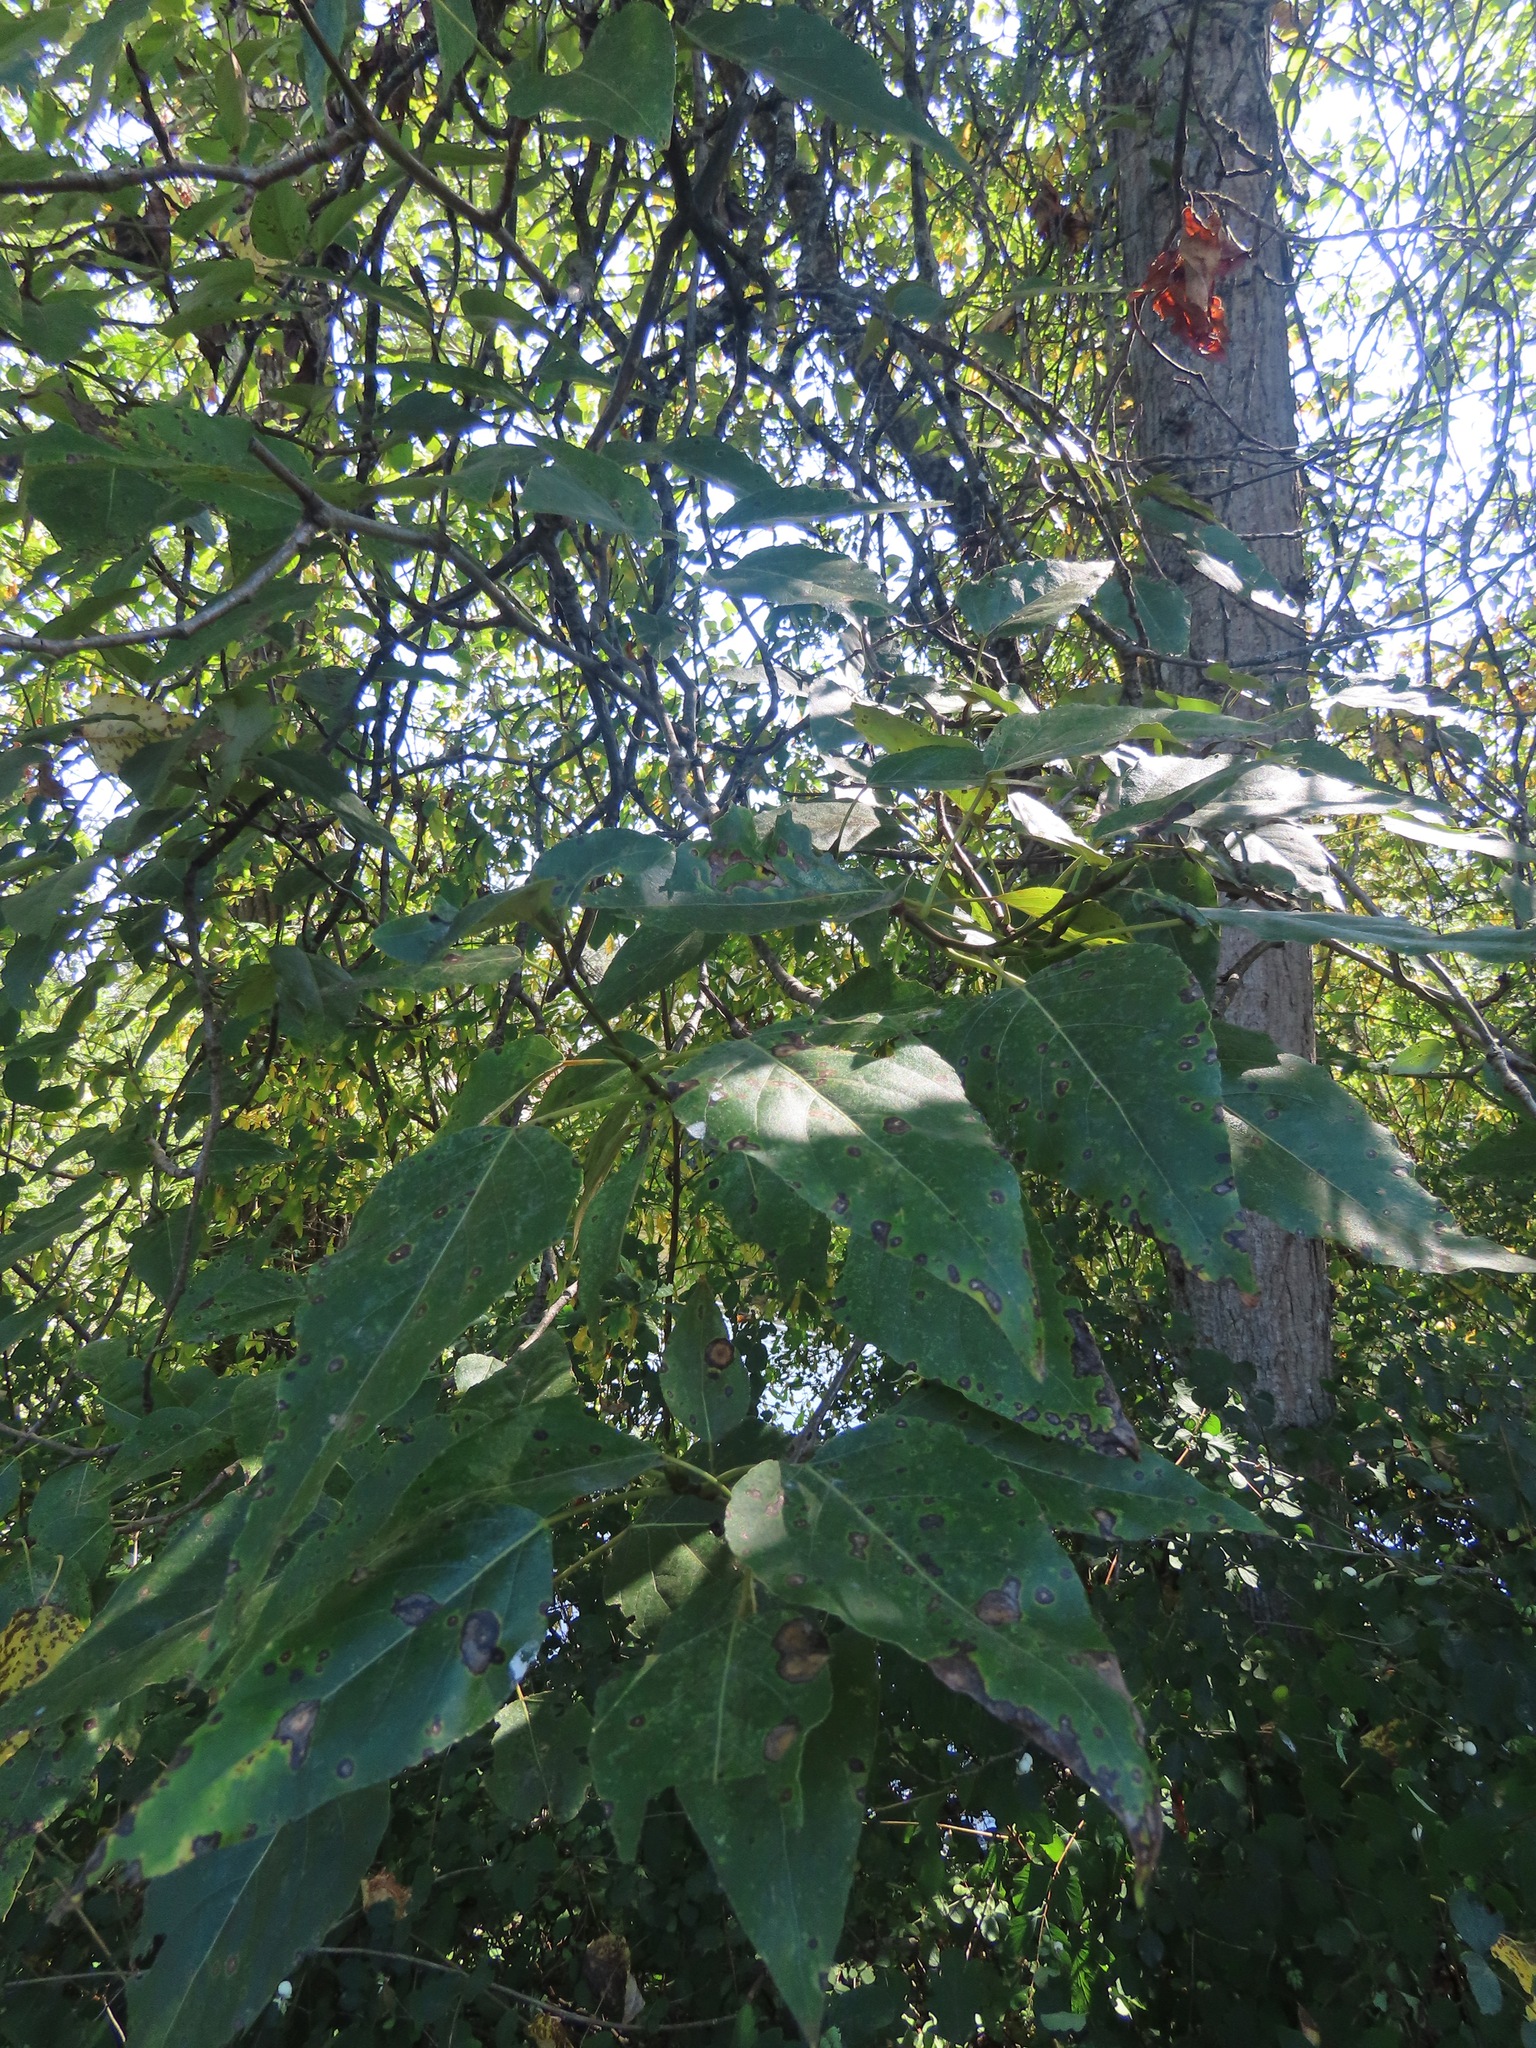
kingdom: Plantae
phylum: Tracheophyta
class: Magnoliopsida
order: Malpighiales
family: Salicaceae
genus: Populus
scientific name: Populus trichocarpa
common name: Black cottonwood
